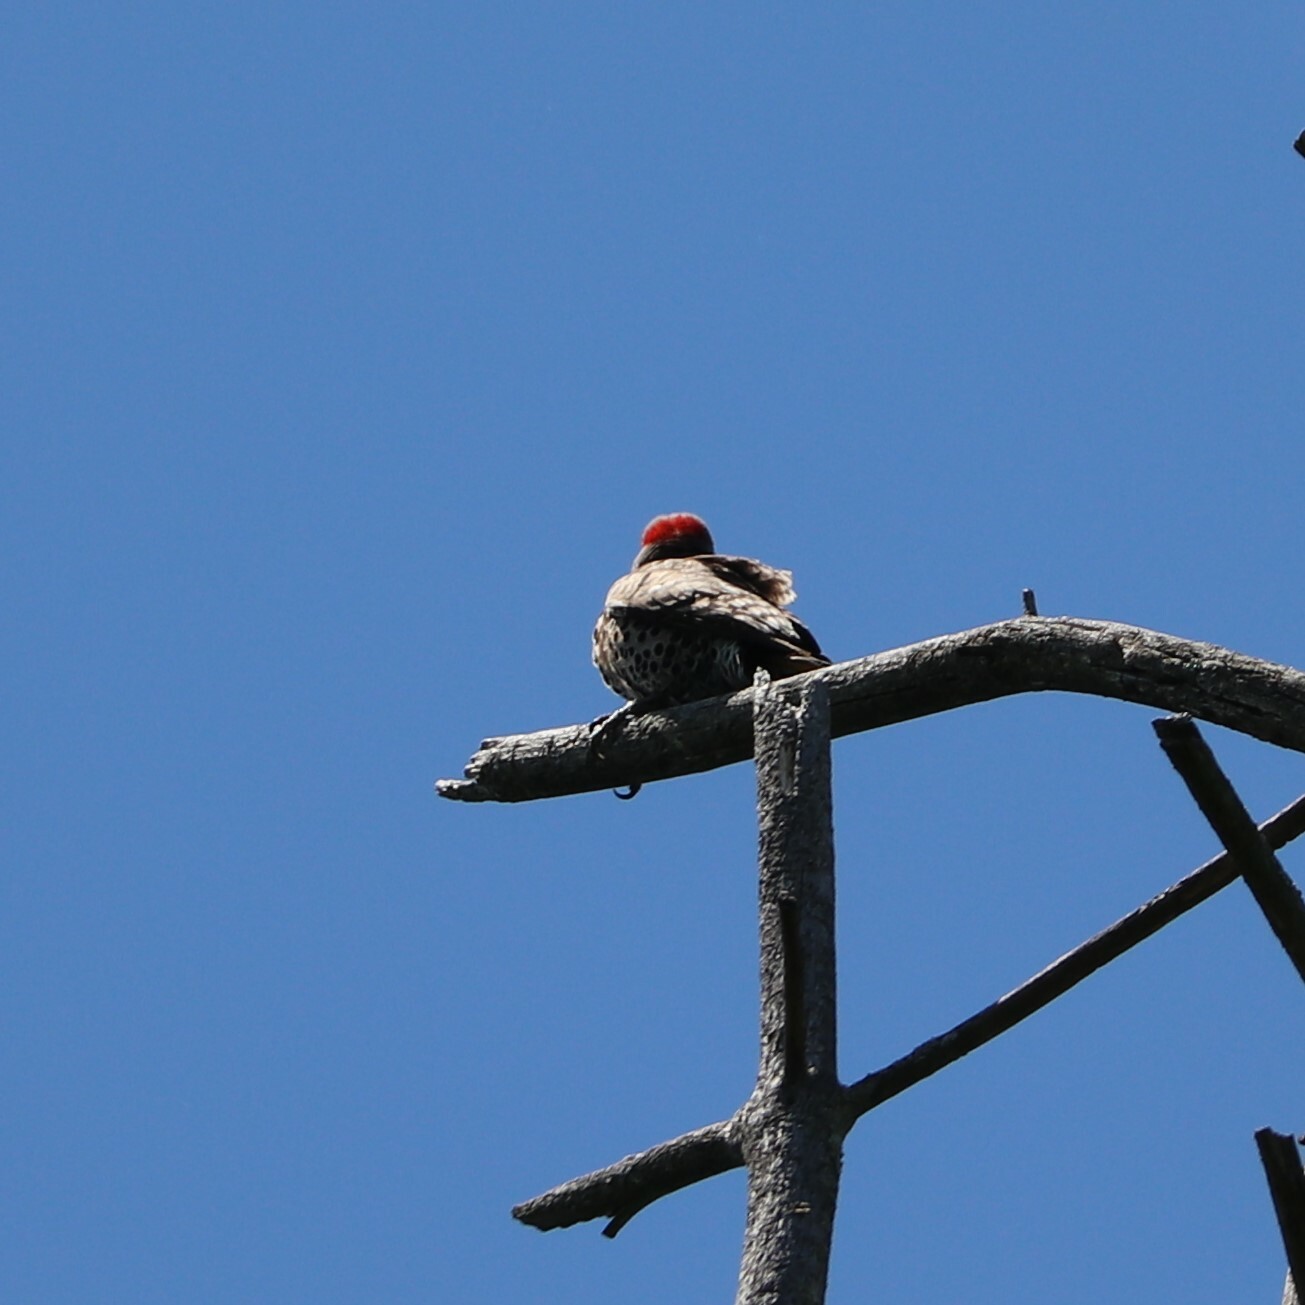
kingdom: Animalia
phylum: Chordata
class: Aves
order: Piciformes
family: Picidae
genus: Colaptes
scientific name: Colaptes auratus
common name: Northern flicker
